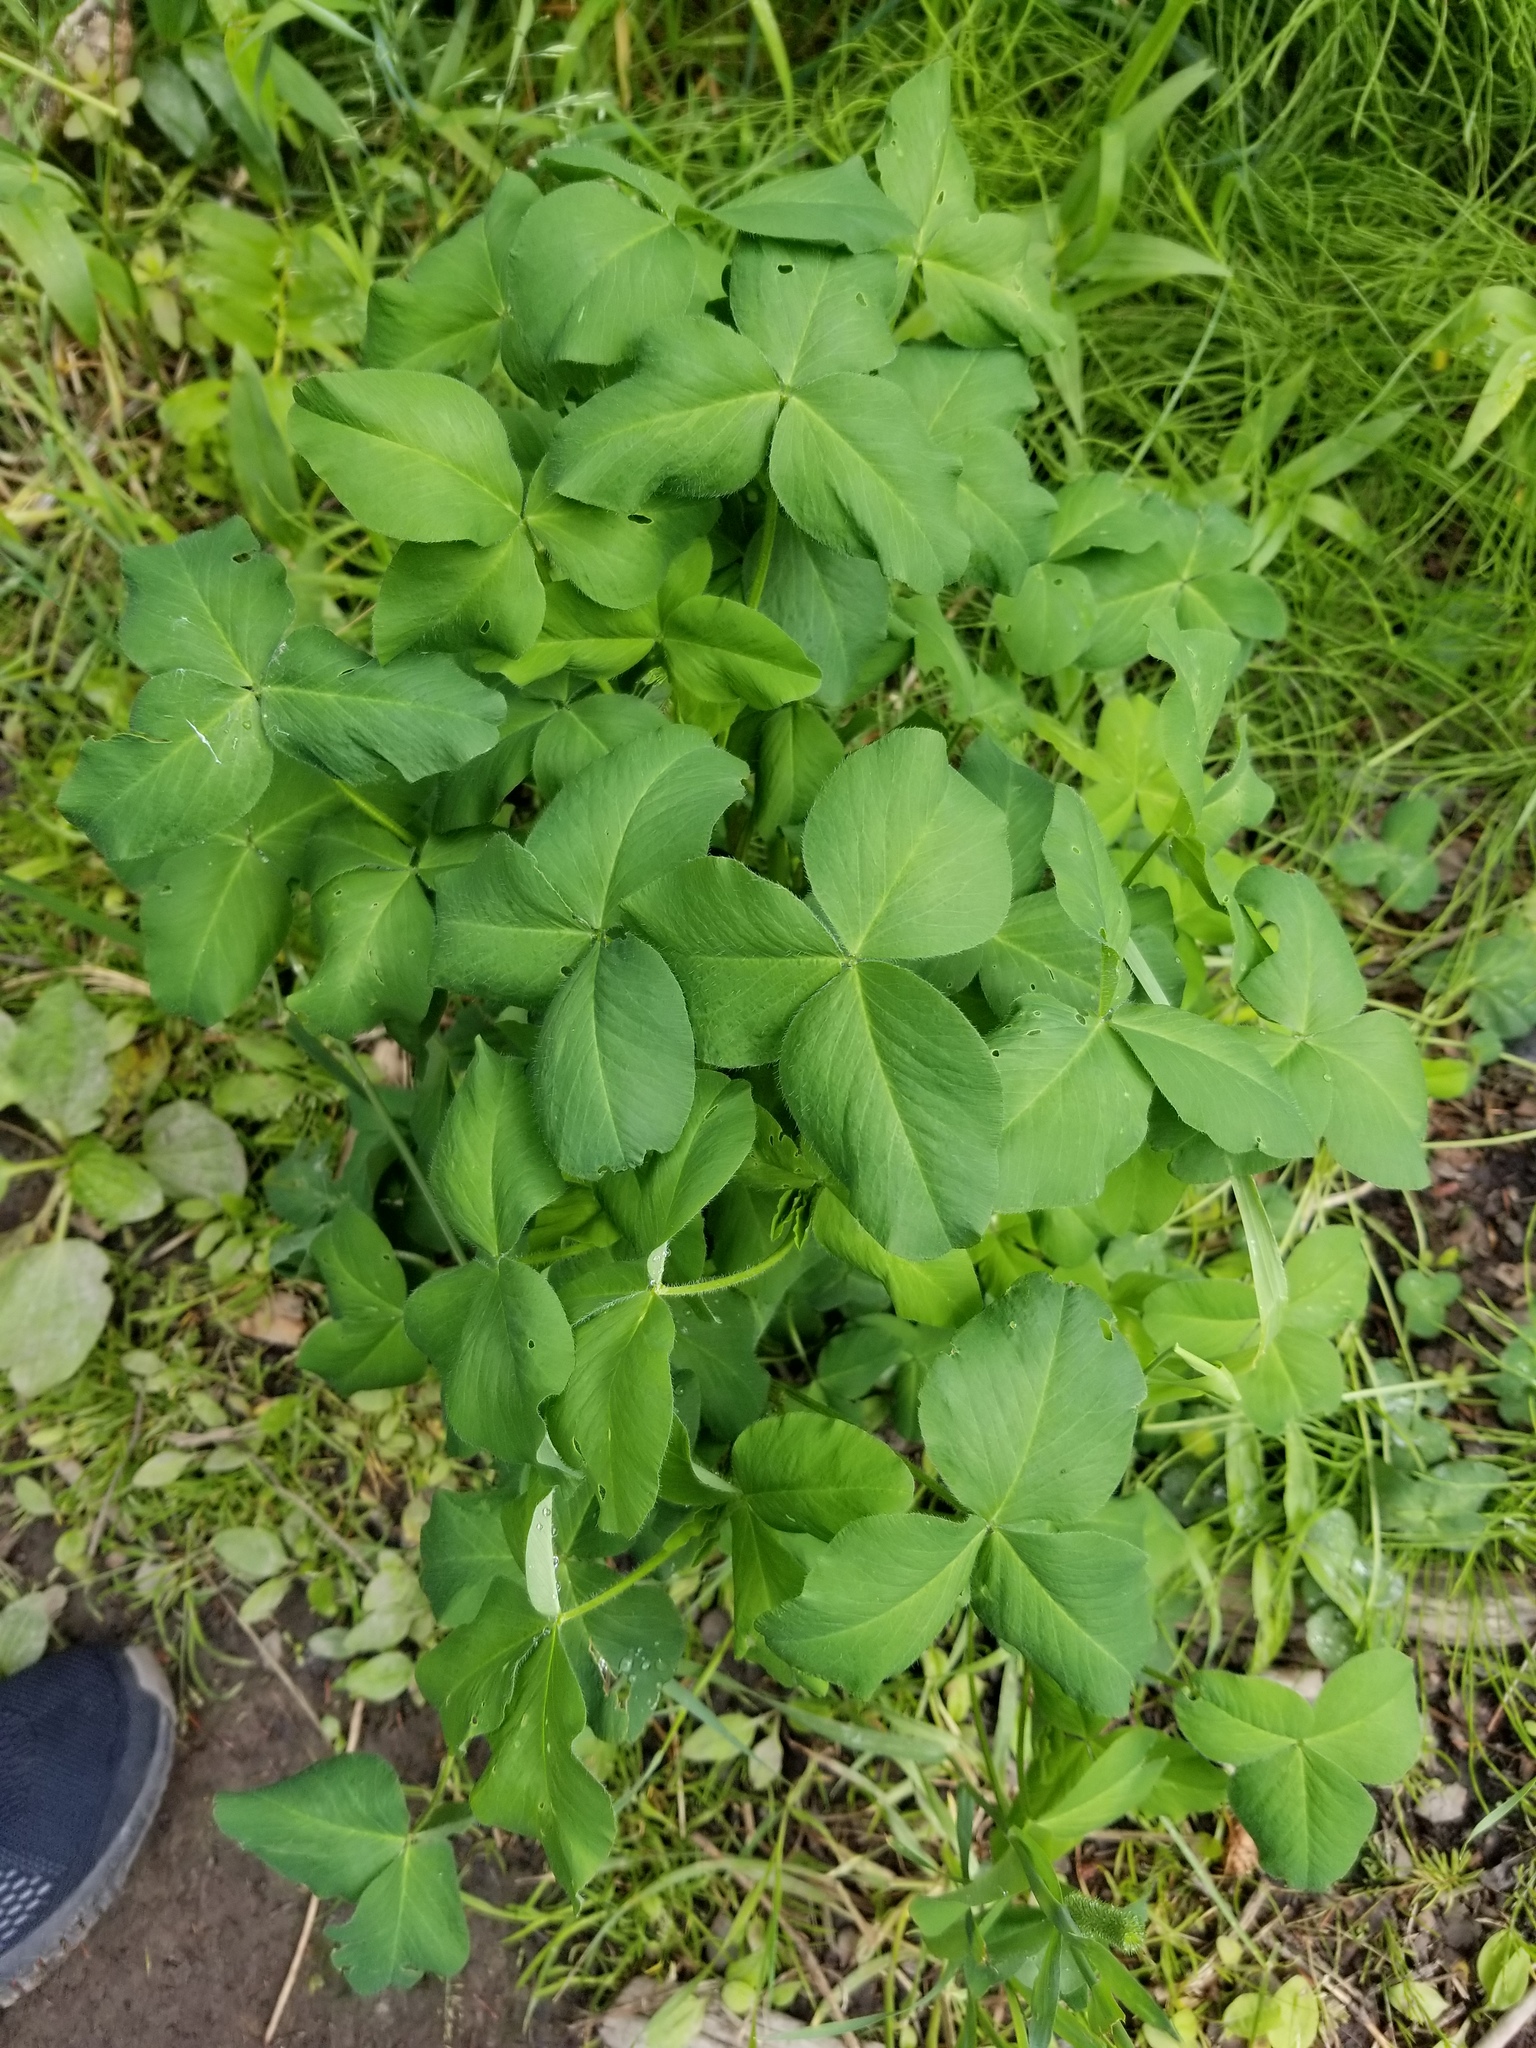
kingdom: Plantae
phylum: Tracheophyta
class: Magnoliopsida
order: Fabales
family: Fabaceae
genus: Trifolium
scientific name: Trifolium pratense
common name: Red clover
